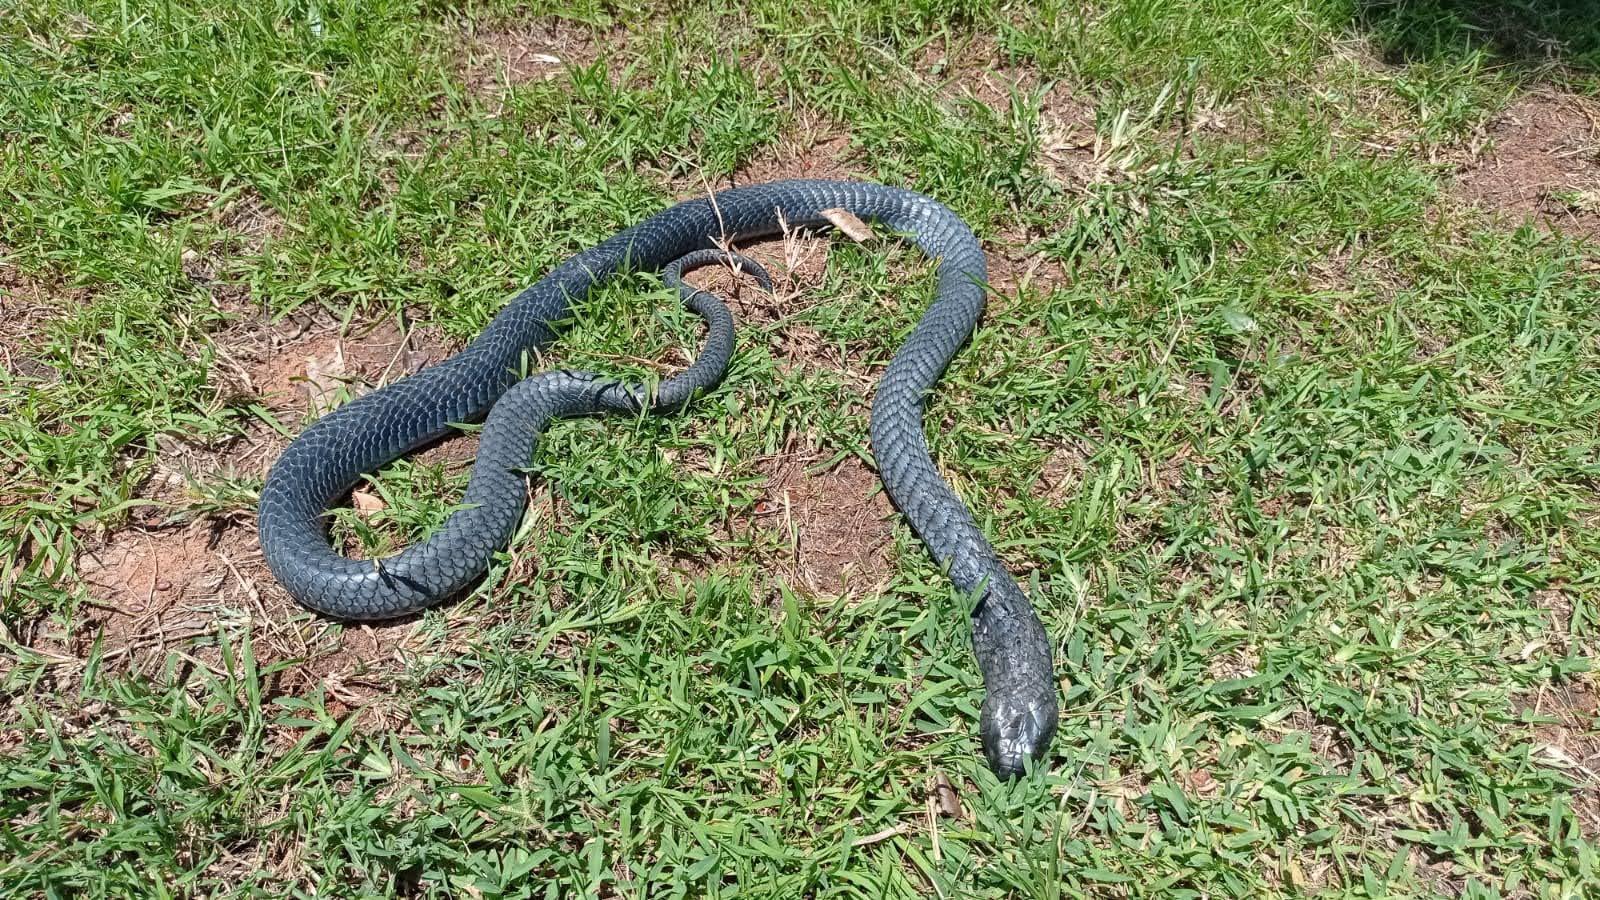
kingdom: Animalia
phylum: Chordata
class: Squamata
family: Elapidae
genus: Naja
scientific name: Naja nigricollis
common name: Black-necked spitting cobra
